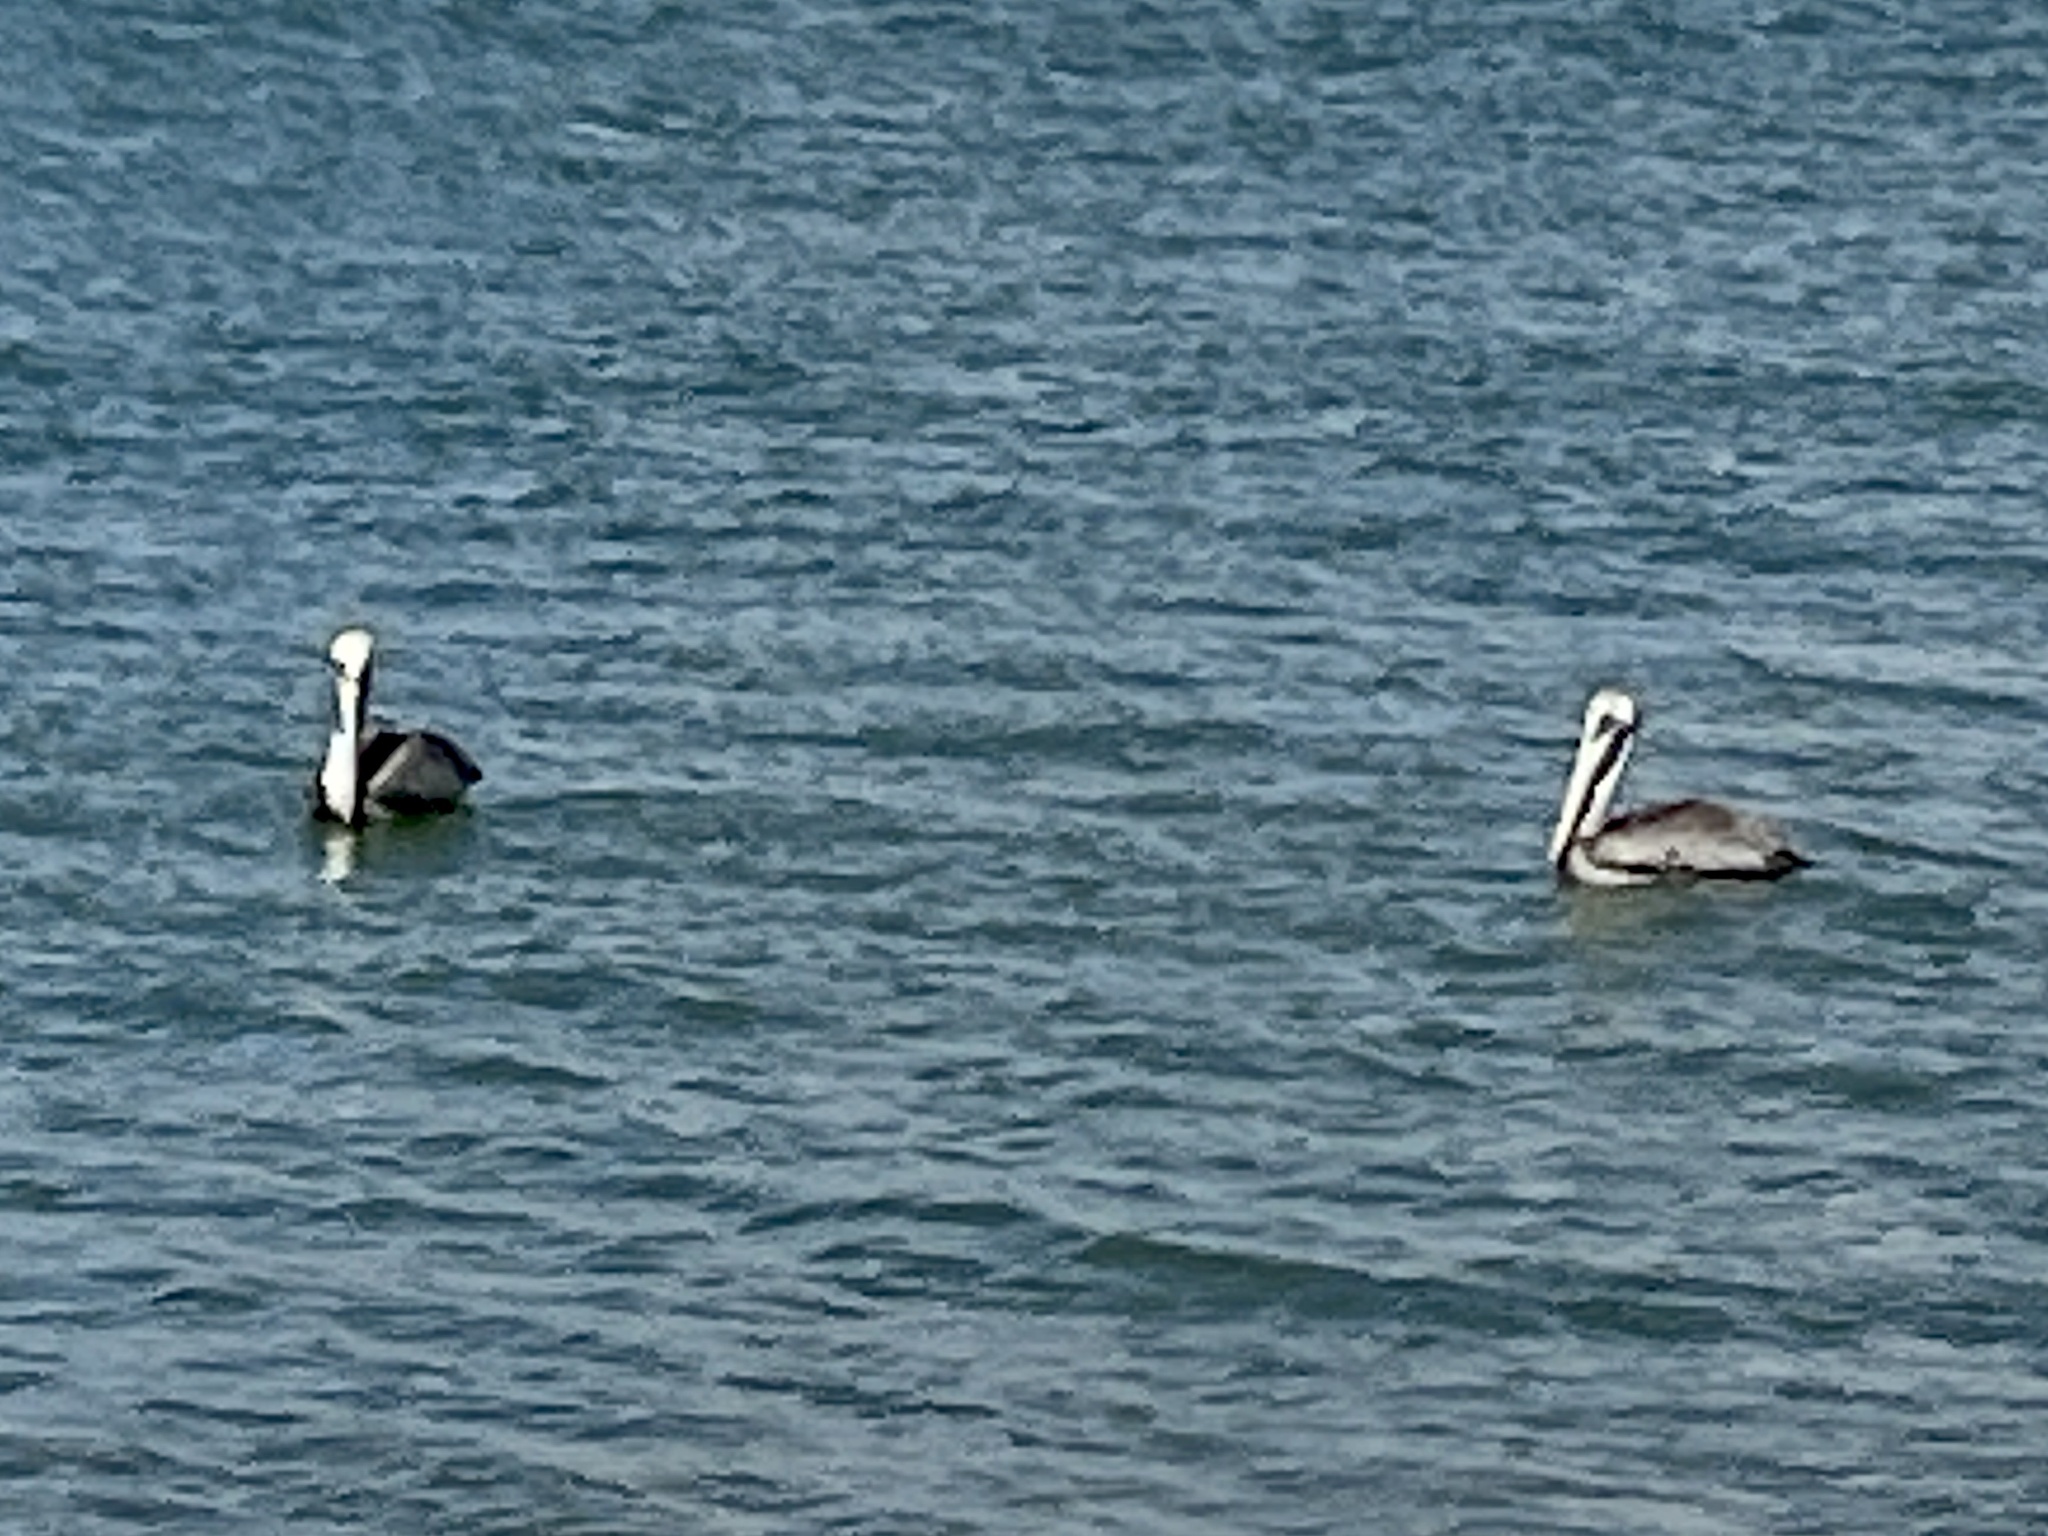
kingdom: Animalia
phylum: Chordata
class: Aves
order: Pelecaniformes
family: Pelecanidae
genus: Pelecanus
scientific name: Pelecanus occidentalis
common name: Brown pelican
